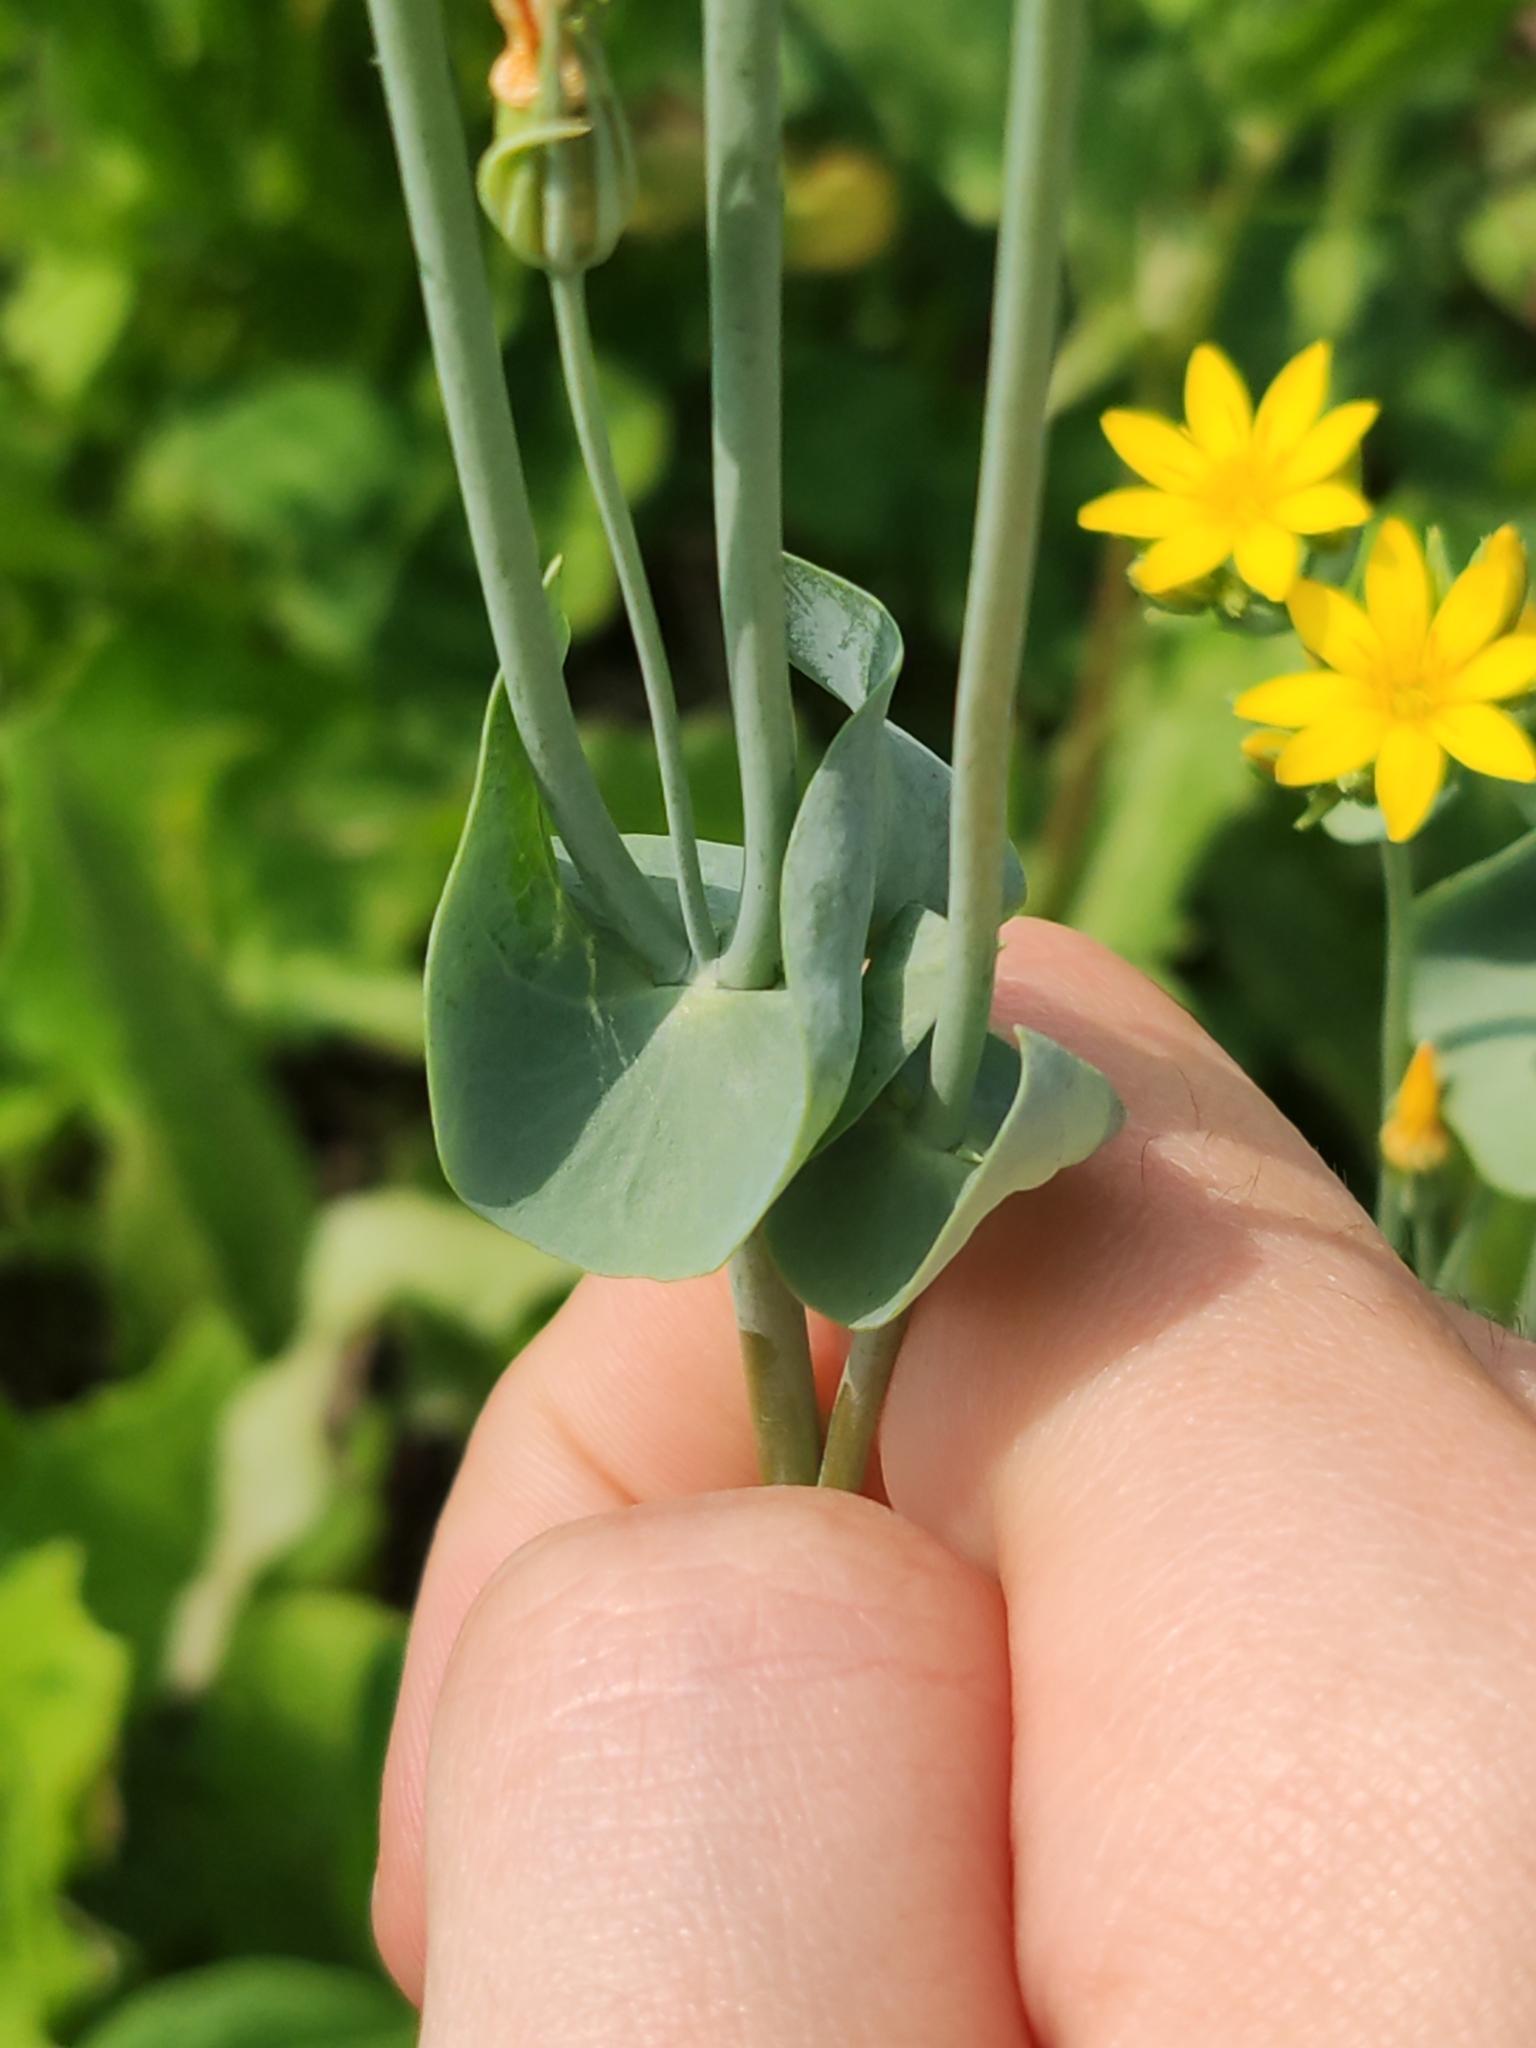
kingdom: Plantae
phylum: Tracheophyta
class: Magnoliopsida
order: Gentianales
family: Gentianaceae
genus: Blackstonia
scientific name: Blackstonia perfoliata
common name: Yellow-wort
